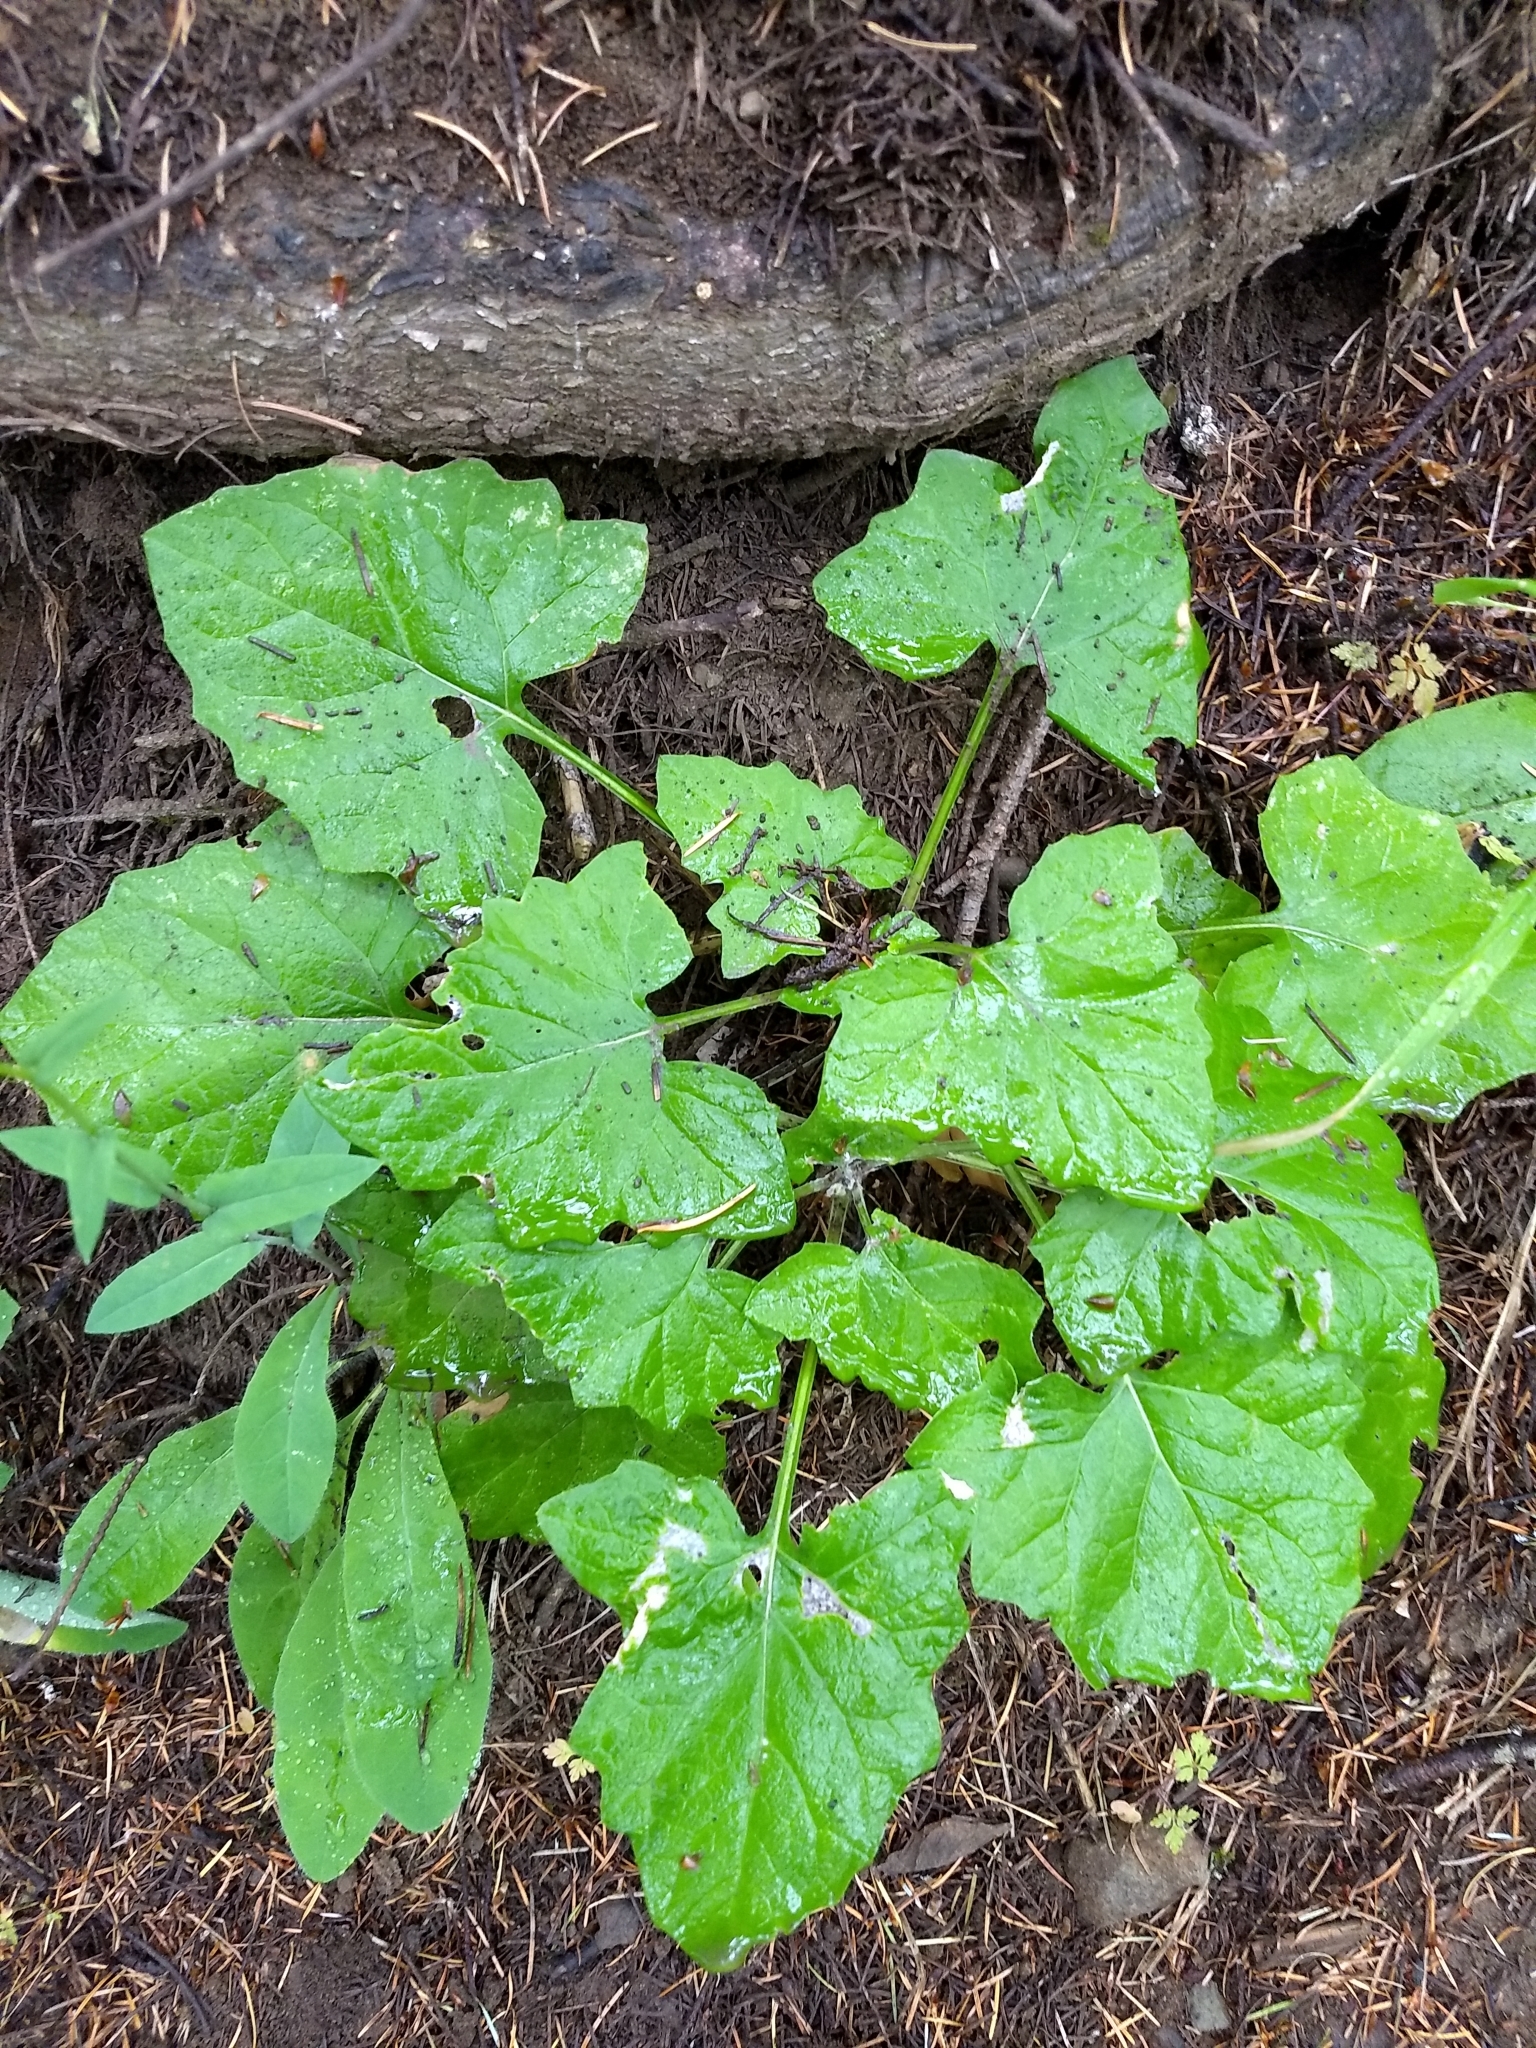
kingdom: Plantae
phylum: Tracheophyta
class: Magnoliopsida
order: Asterales
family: Asteraceae
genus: Adenocaulon
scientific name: Adenocaulon bicolor
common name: Trailplant
